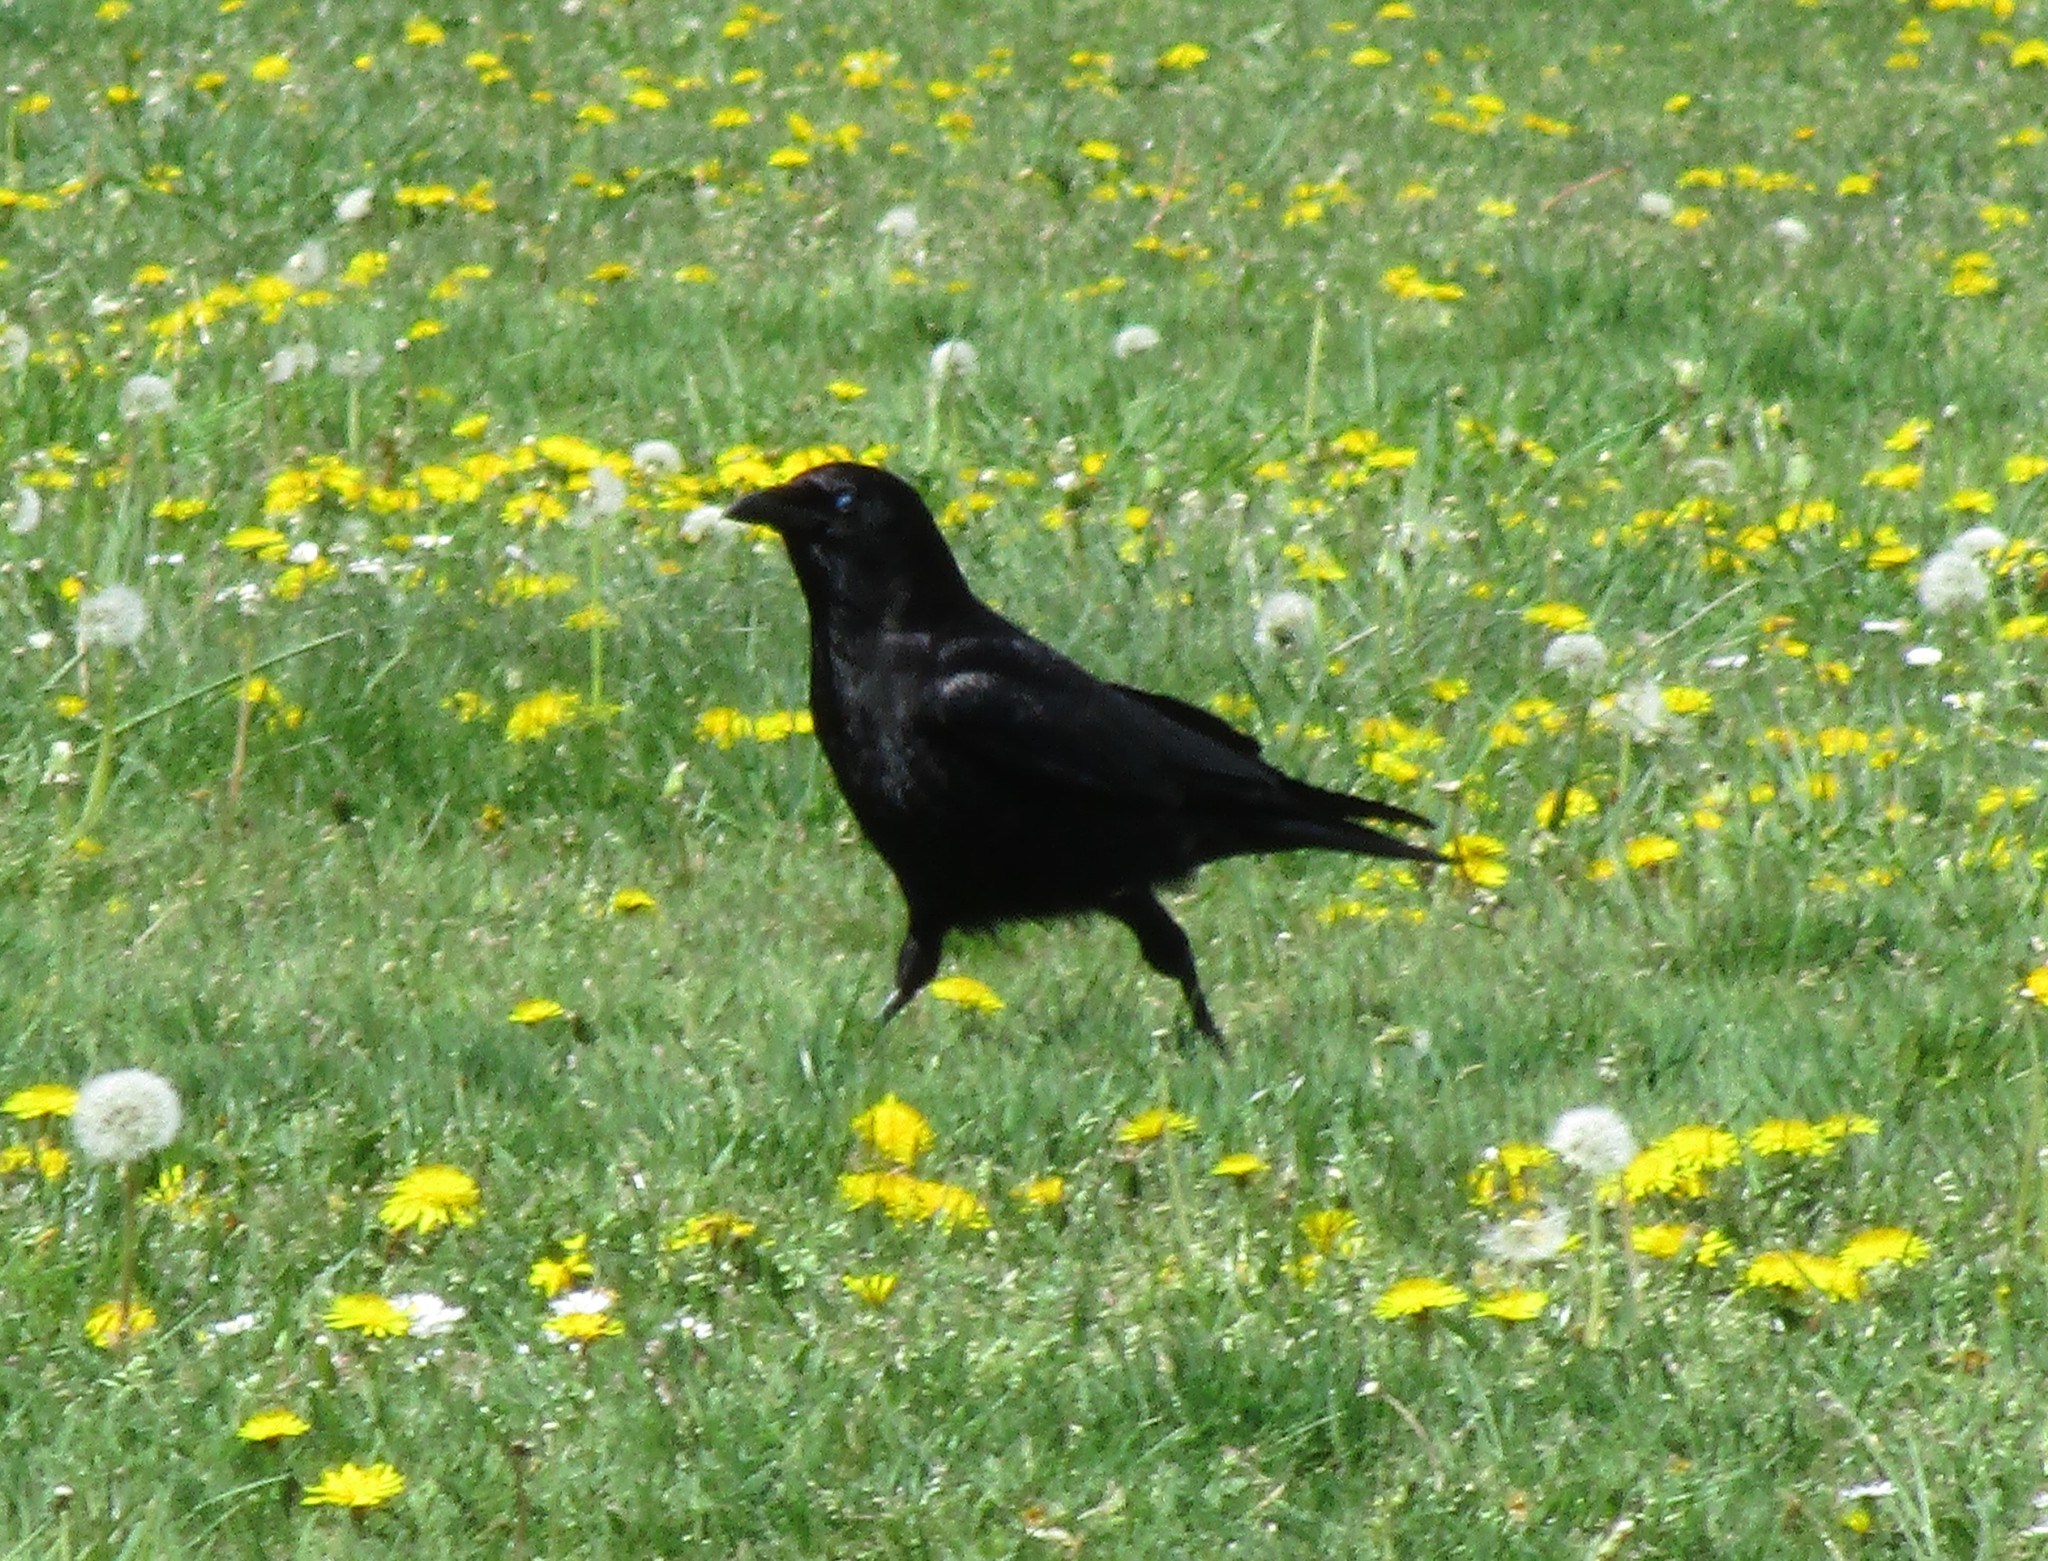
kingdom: Animalia
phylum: Chordata
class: Aves
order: Passeriformes
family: Corvidae
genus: Corvus
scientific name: Corvus brachyrhynchos
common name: American crow
